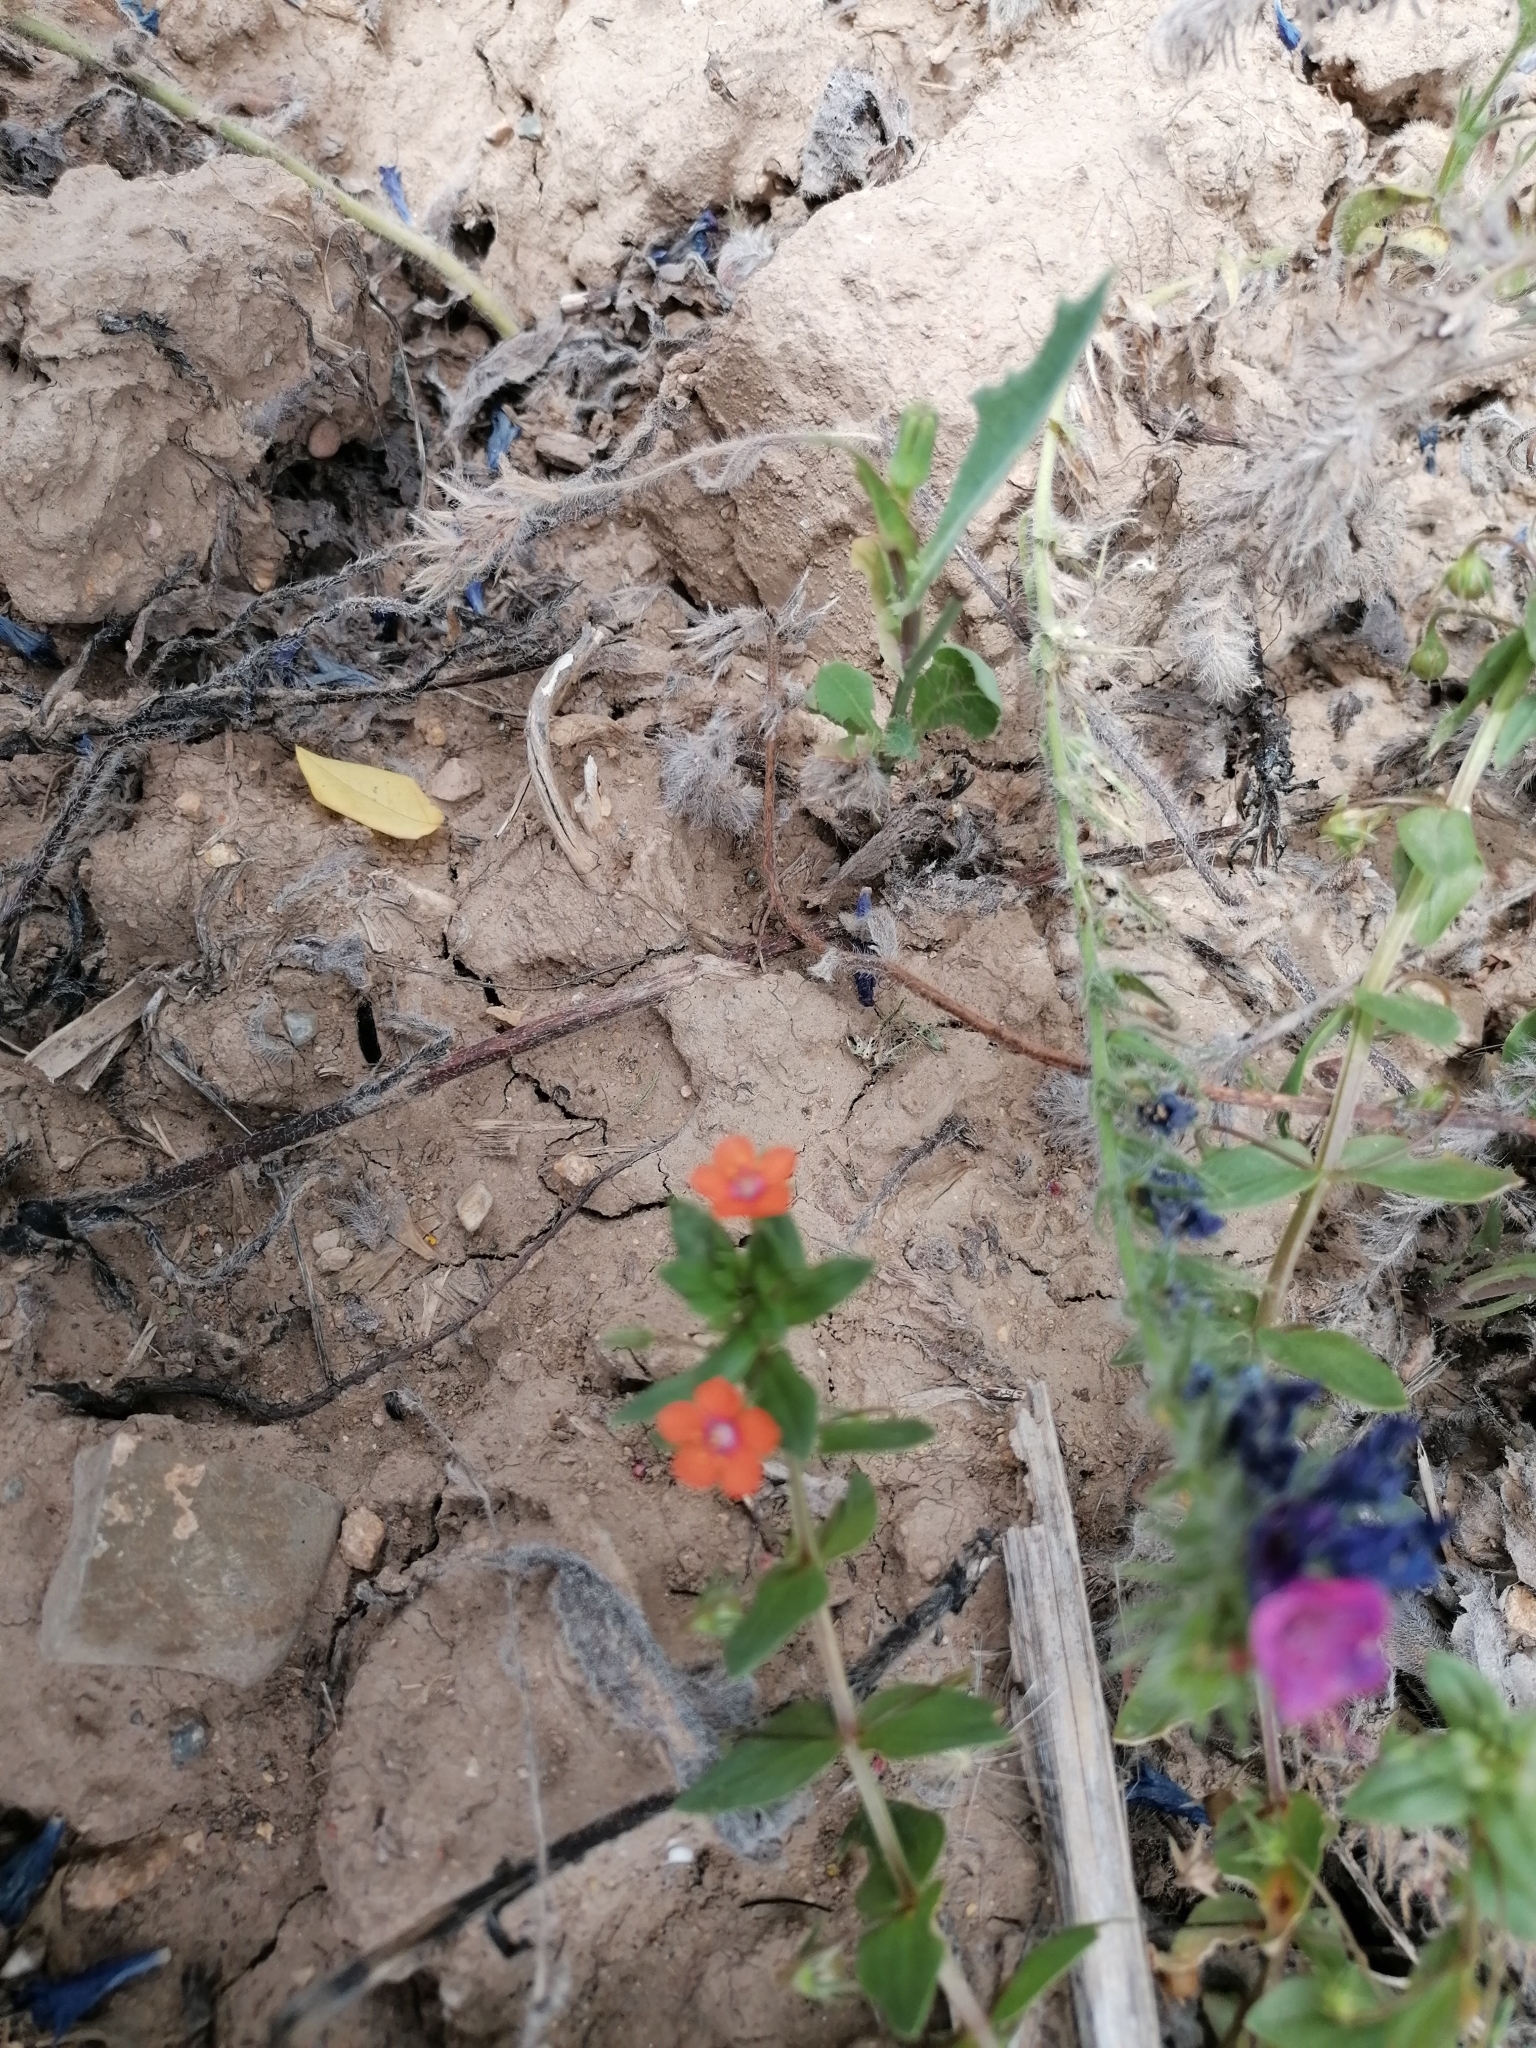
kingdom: Plantae
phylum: Tracheophyta
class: Magnoliopsida
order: Ericales
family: Primulaceae
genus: Lysimachia
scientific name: Lysimachia arvensis
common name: Scarlet pimpernel
